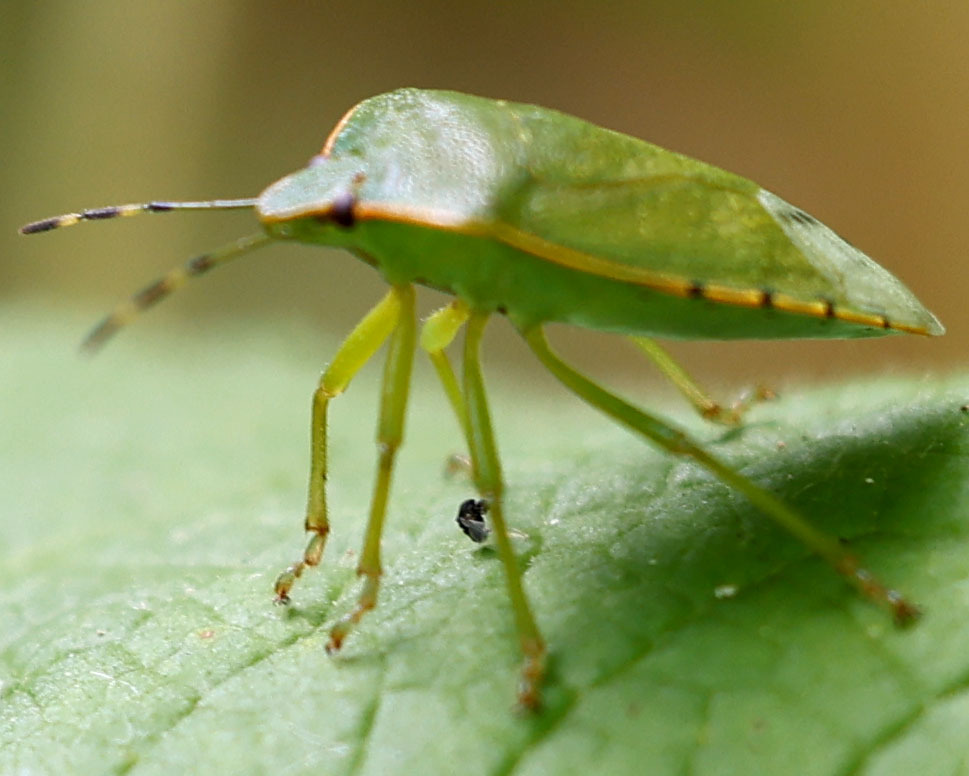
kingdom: Animalia
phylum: Arthropoda
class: Insecta
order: Hemiptera
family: Pentatomidae
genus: Chinavia
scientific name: Chinavia hilaris
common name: Green stink bug
